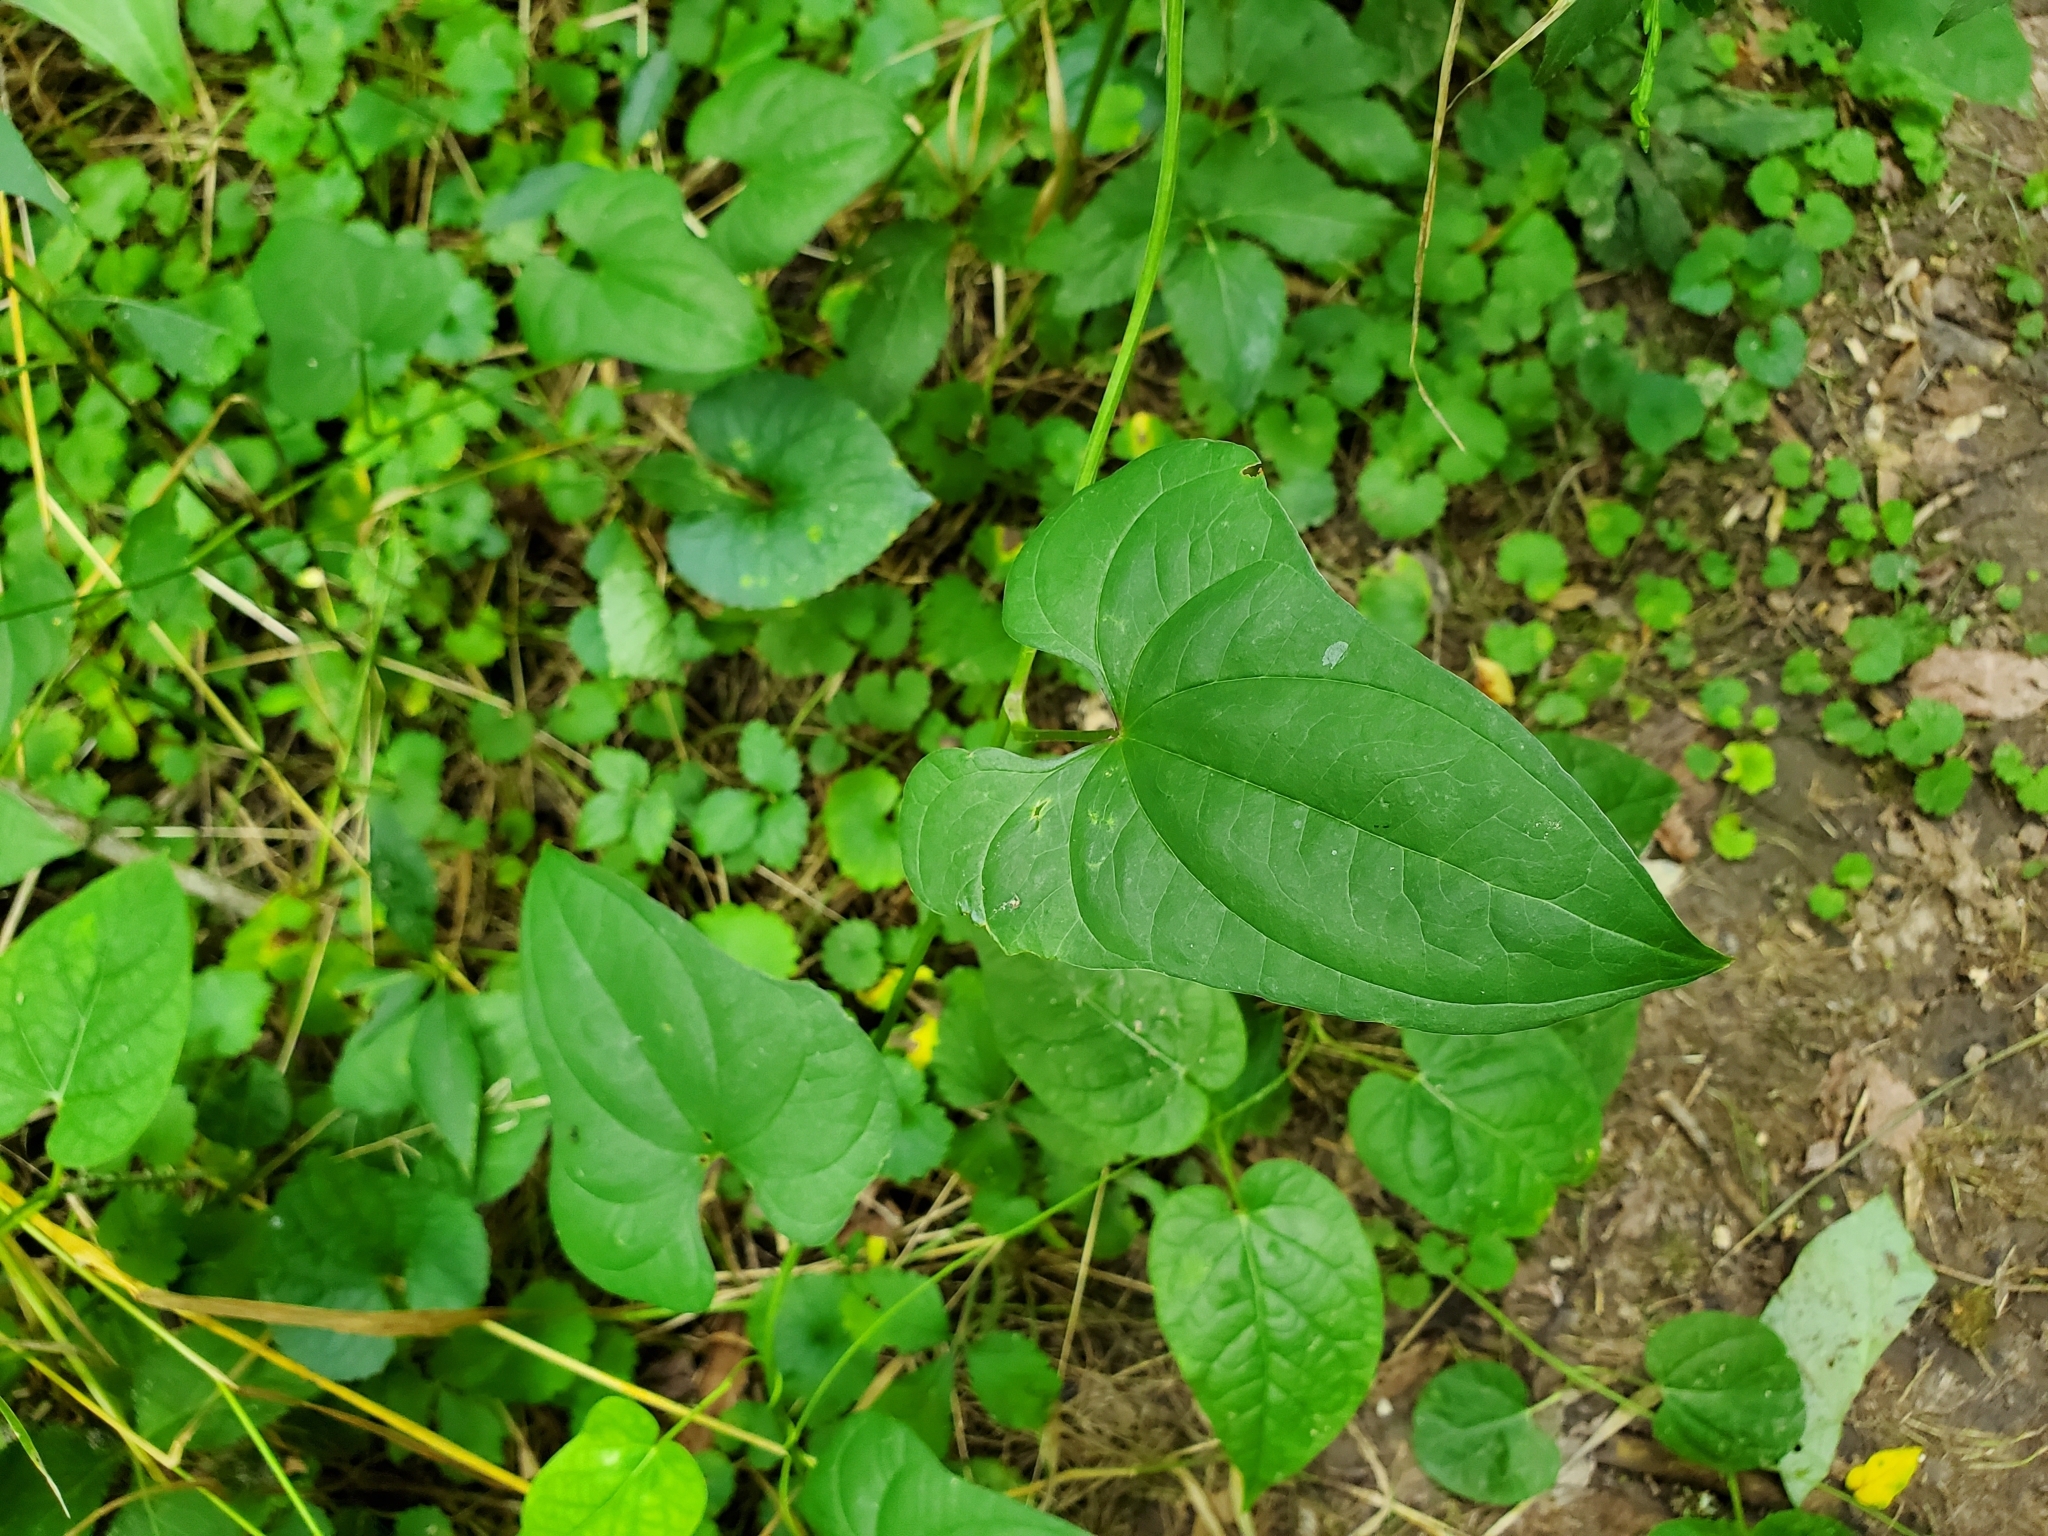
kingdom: Plantae
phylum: Tracheophyta
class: Liliopsida
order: Dioscoreales
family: Dioscoreaceae
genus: Dioscorea
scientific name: Dioscorea polystachya
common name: Chinese yam
